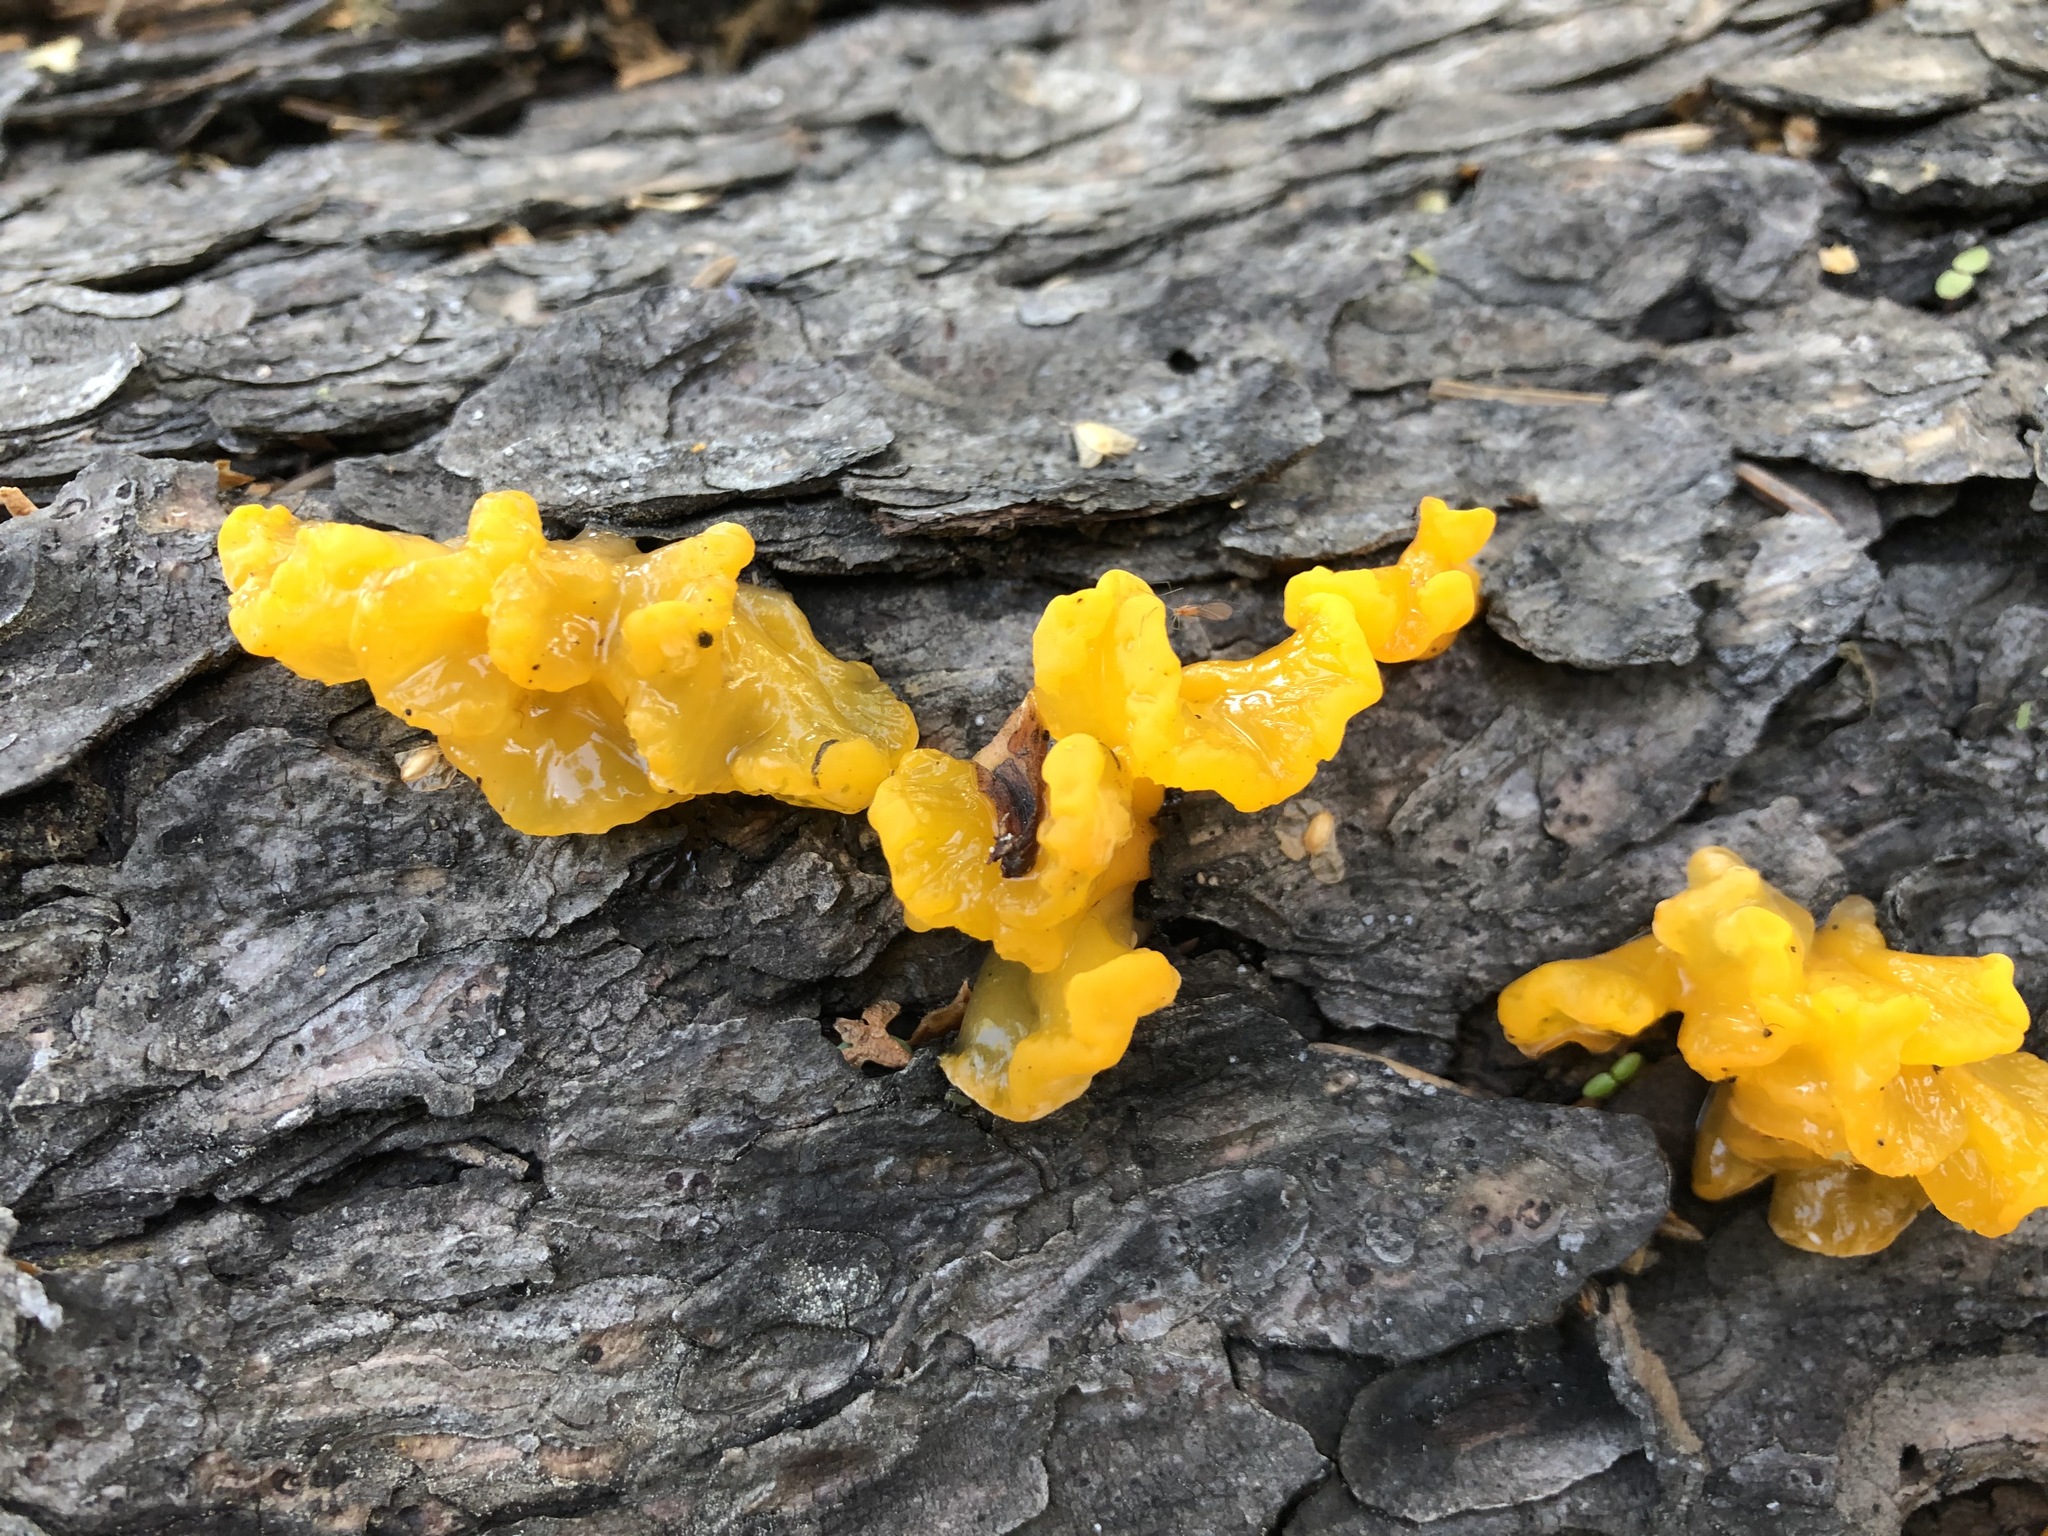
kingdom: Fungi
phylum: Basidiomycota
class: Dacrymycetes
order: Dacrymycetales
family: Dacrymycetaceae
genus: Dacrymyces
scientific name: Dacrymyces chrysospermus
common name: Orange jelly spot
